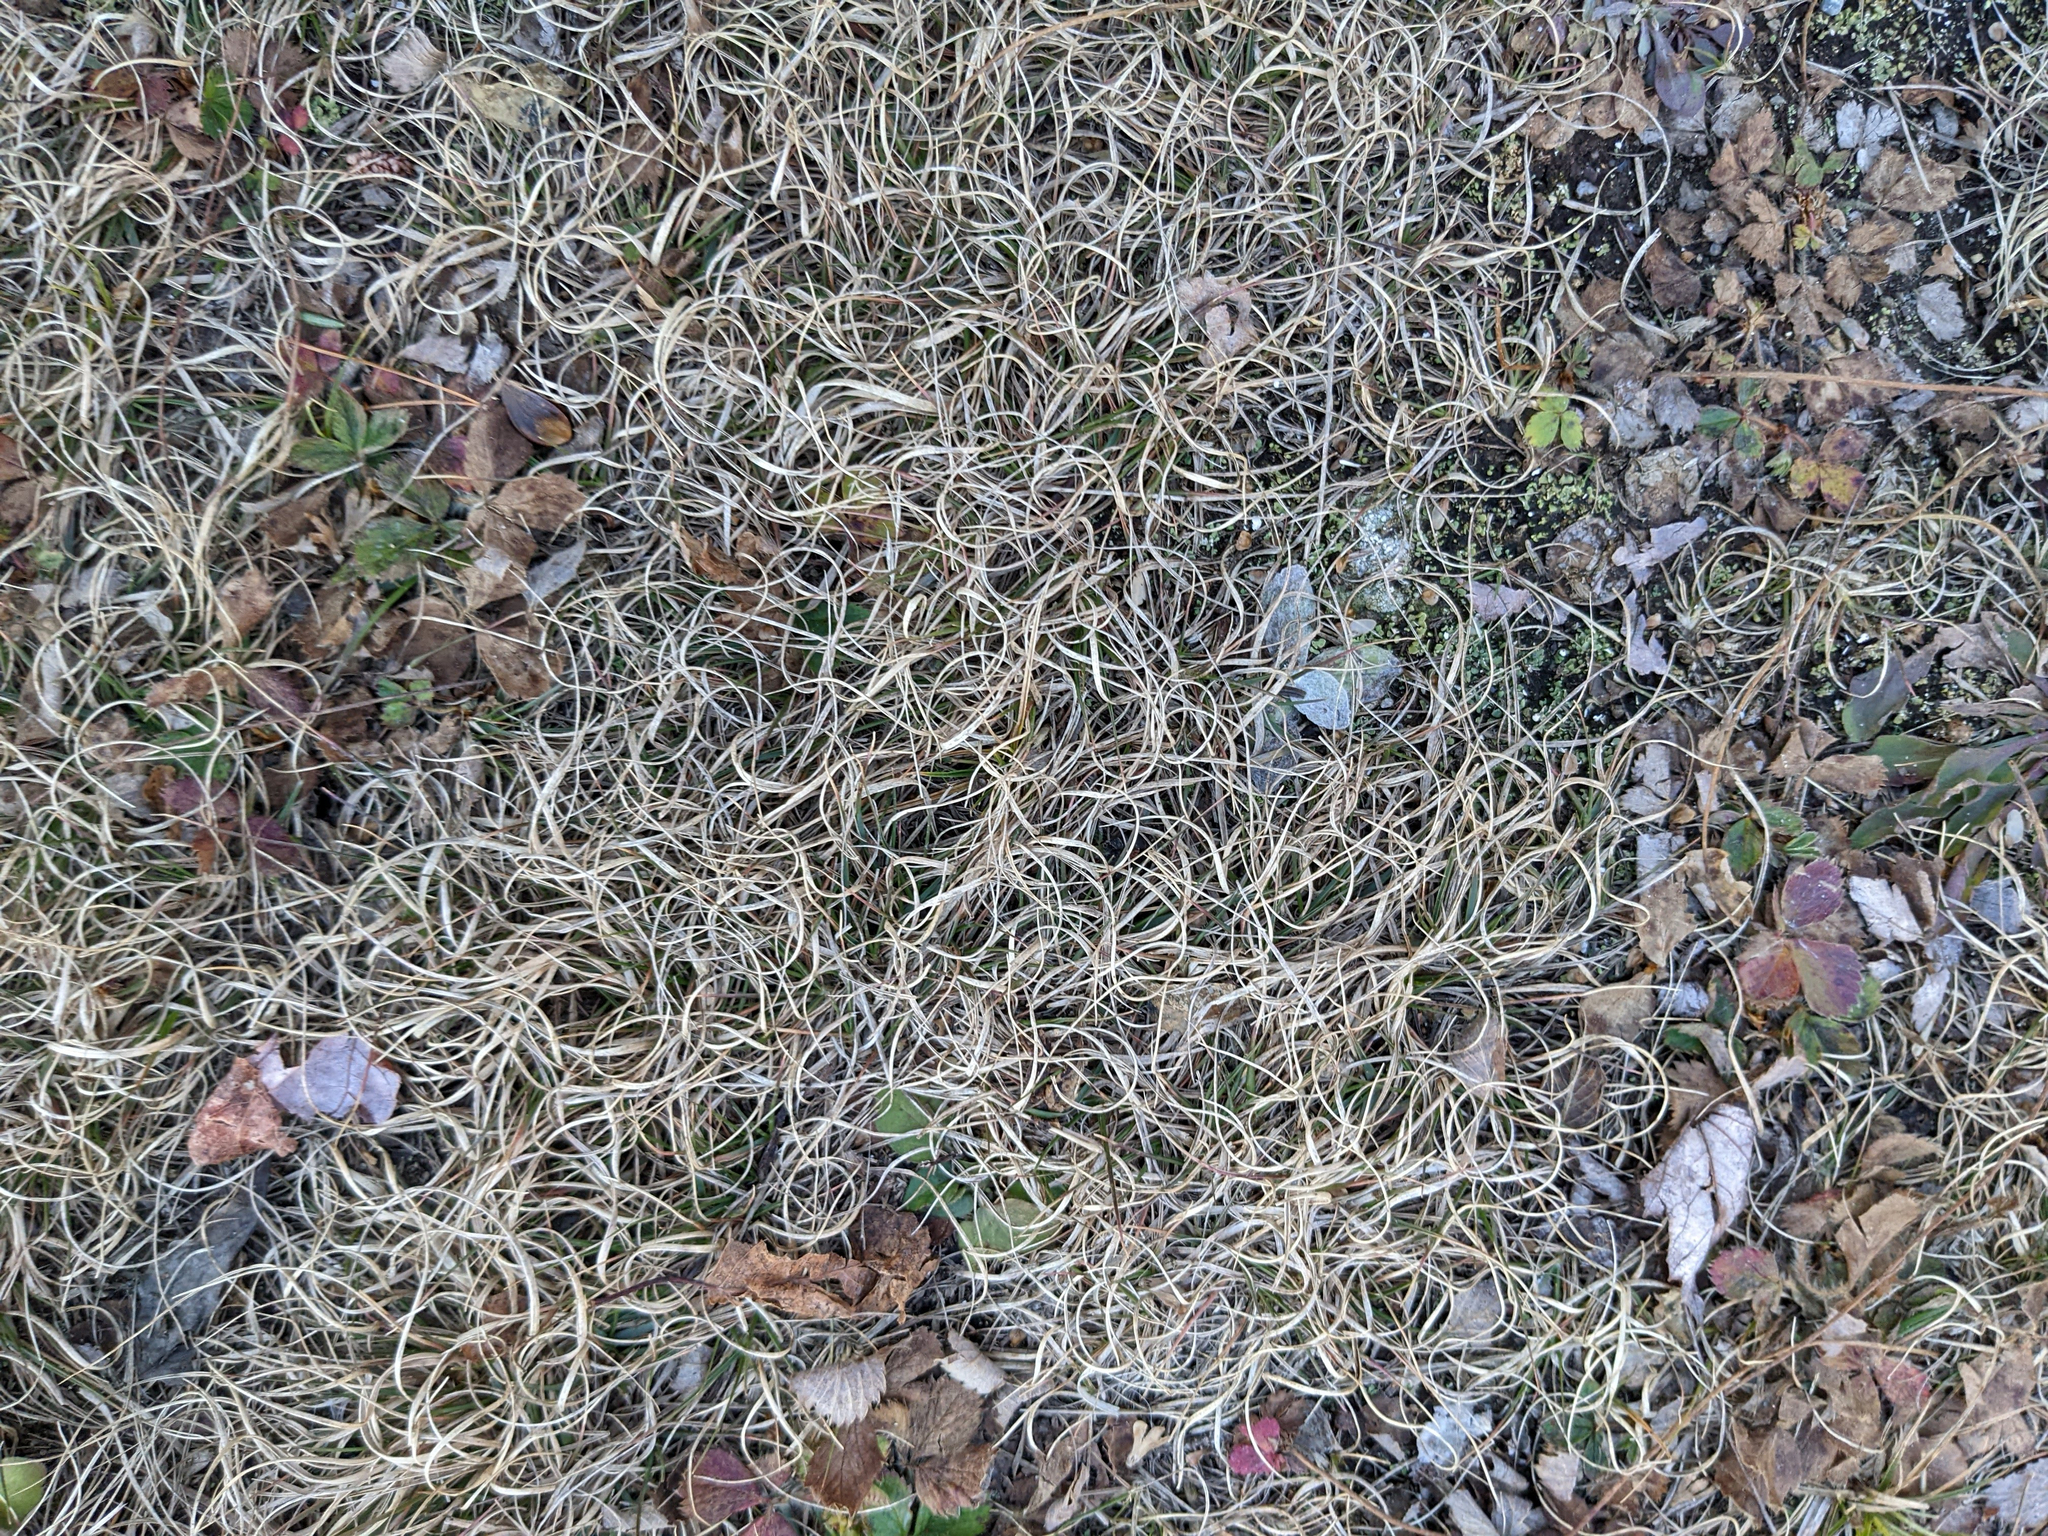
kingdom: Plantae
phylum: Tracheophyta
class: Liliopsida
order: Poales
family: Poaceae
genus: Danthonia
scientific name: Danthonia spicata
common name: Common wild oatgrass
